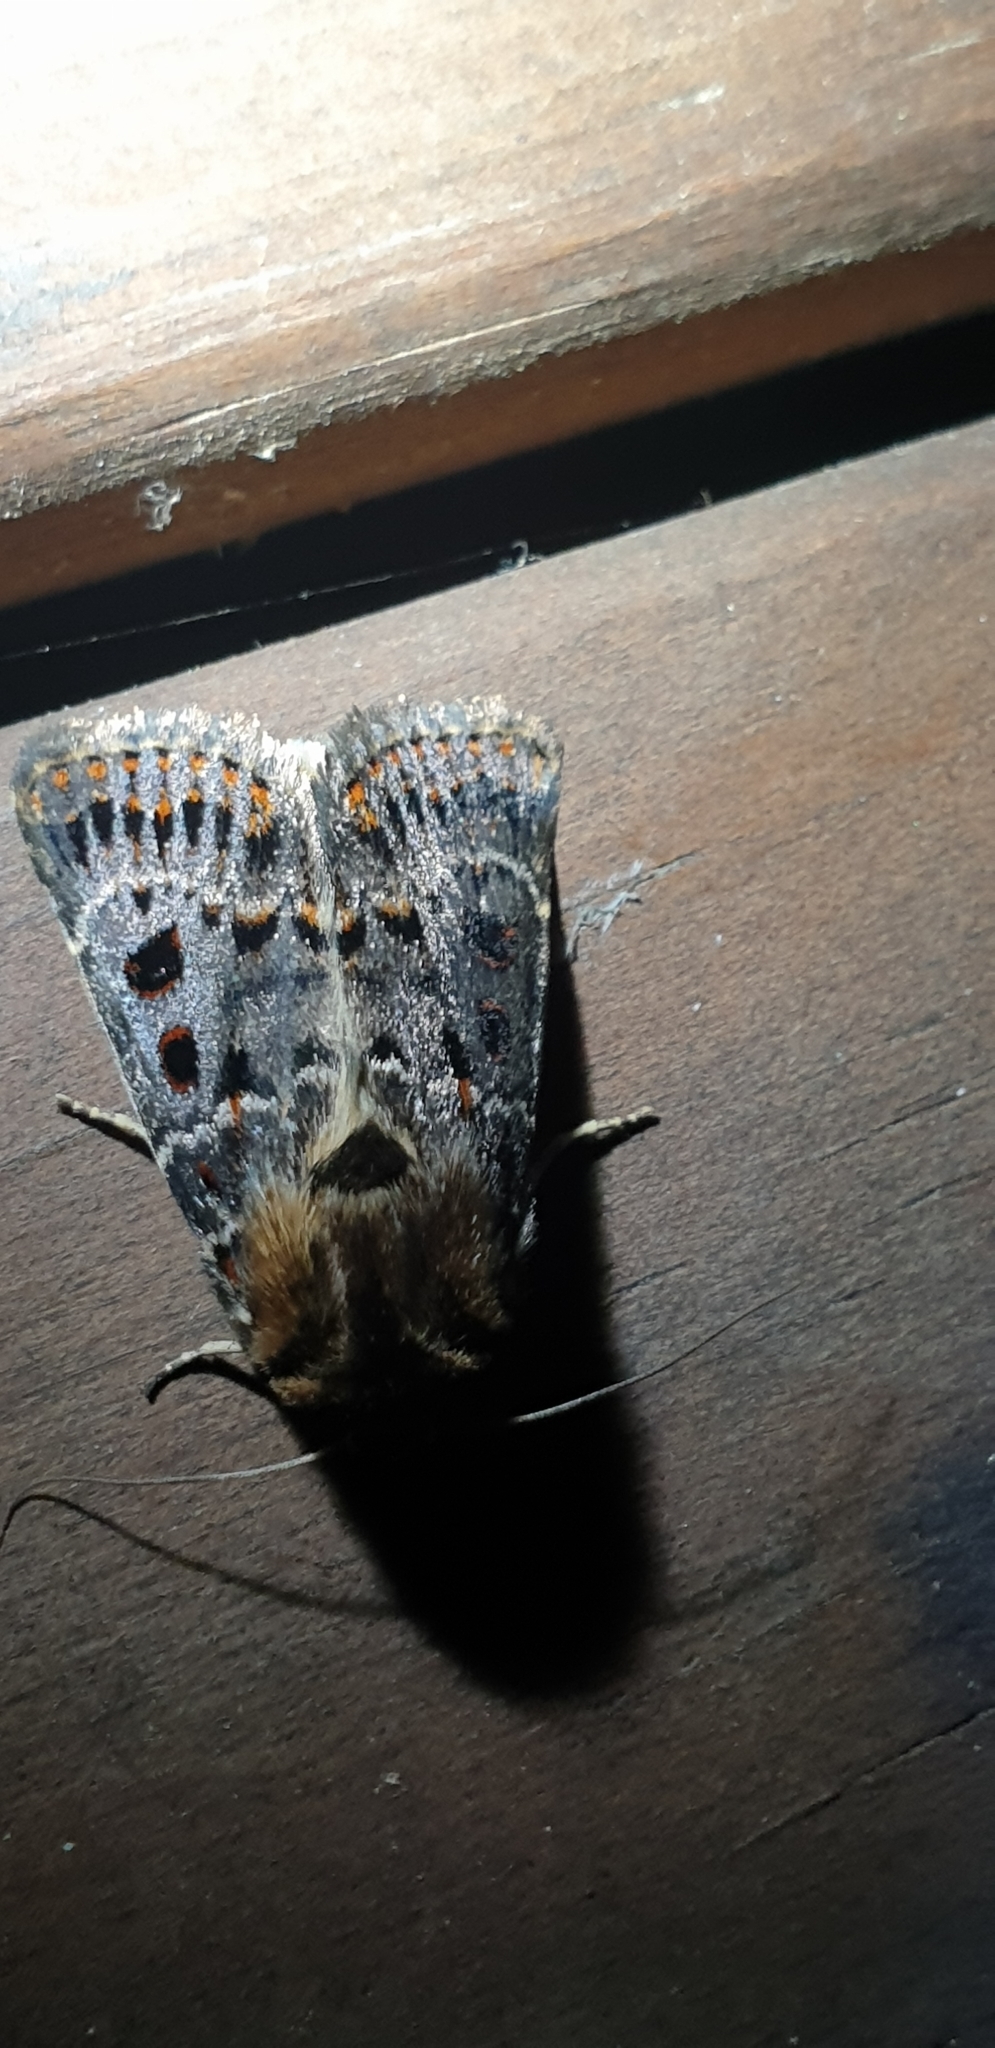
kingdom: Animalia
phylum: Arthropoda
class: Insecta
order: Lepidoptera
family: Noctuidae
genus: Proteuxoa
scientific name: Proteuxoa sanguinipuncta
